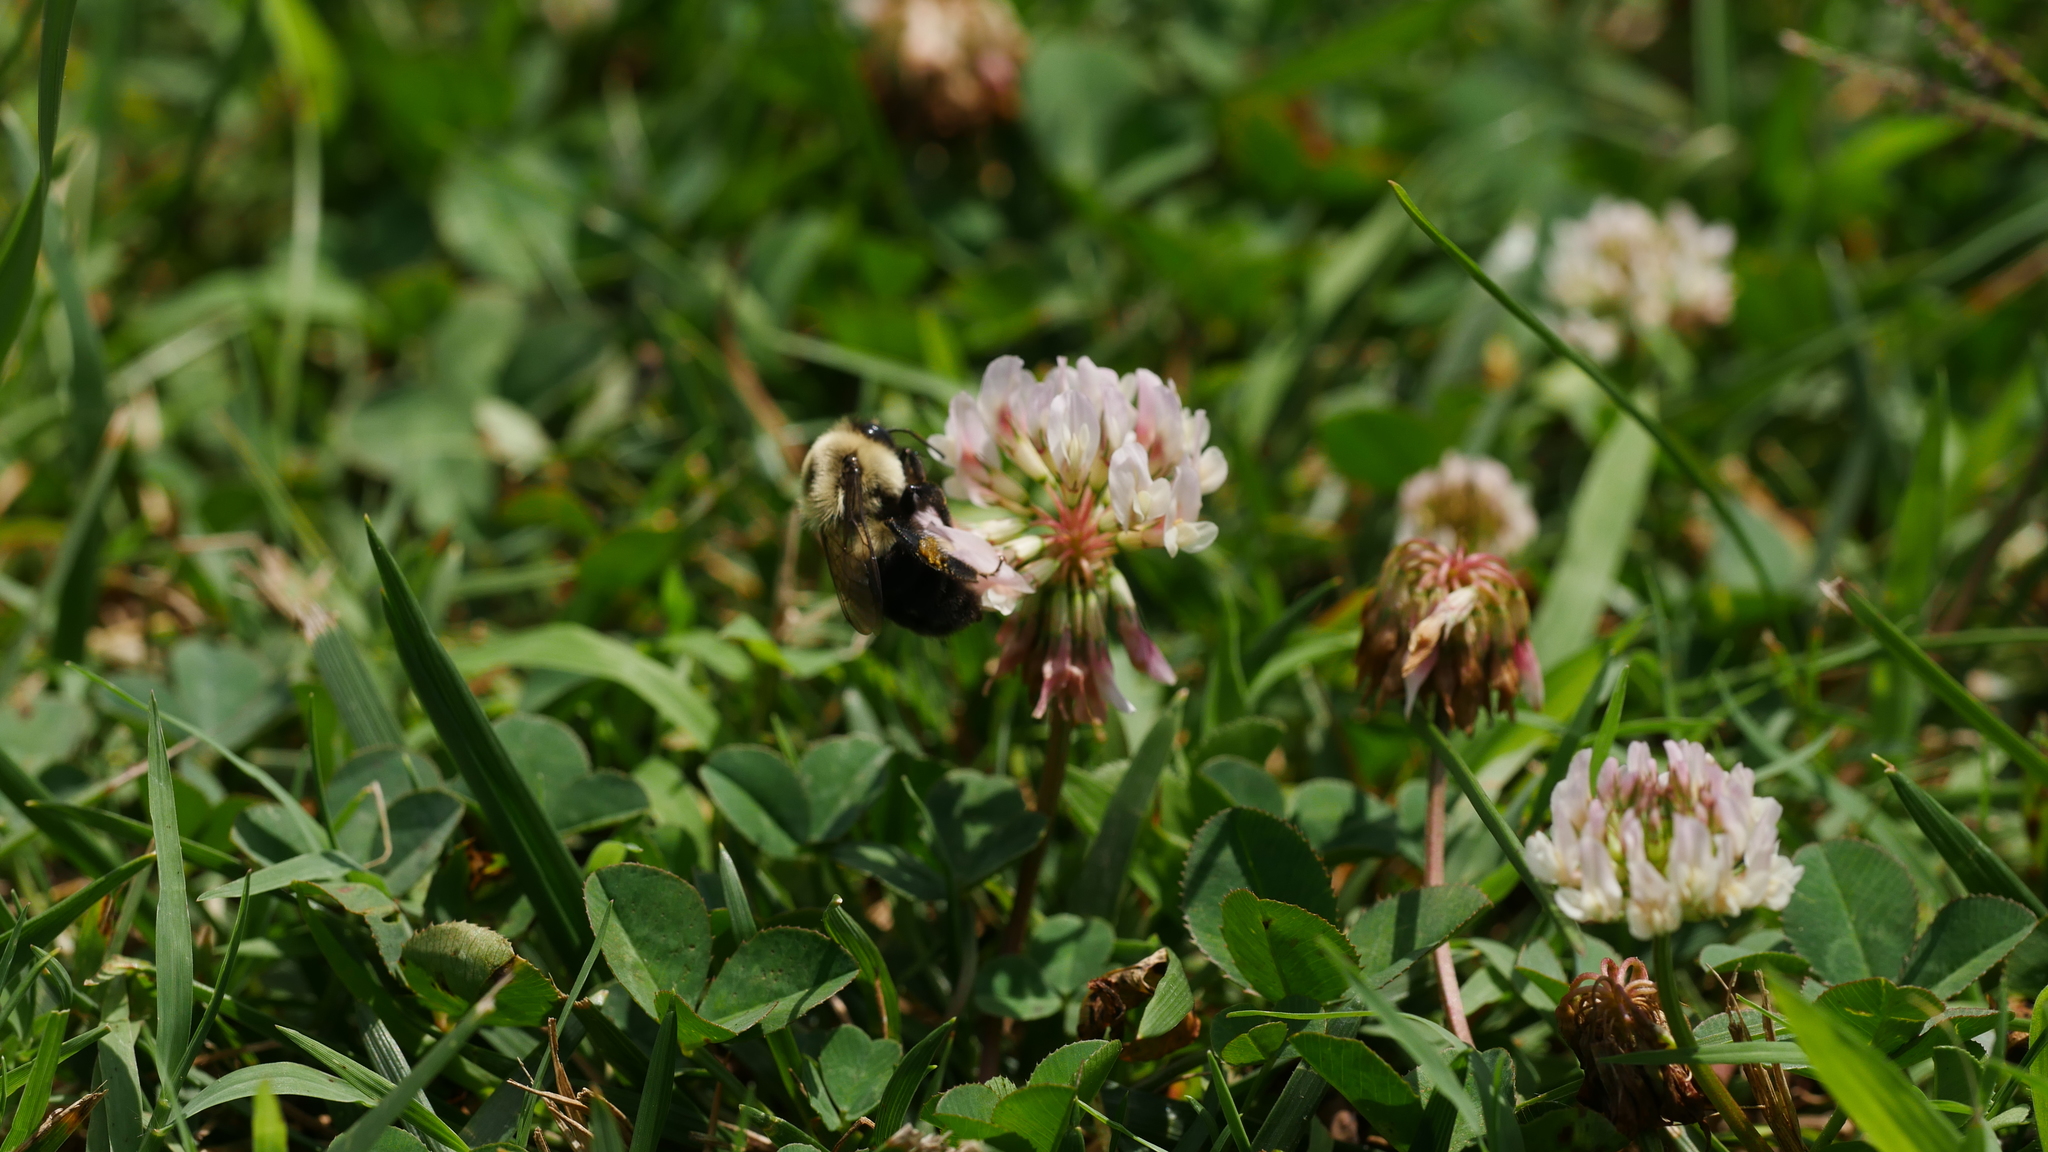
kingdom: Animalia
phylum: Arthropoda
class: Insecta
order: Hymenoptera
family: Apidae
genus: Bombus
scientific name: Bombus impatiens
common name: Common eastern bumble bee
